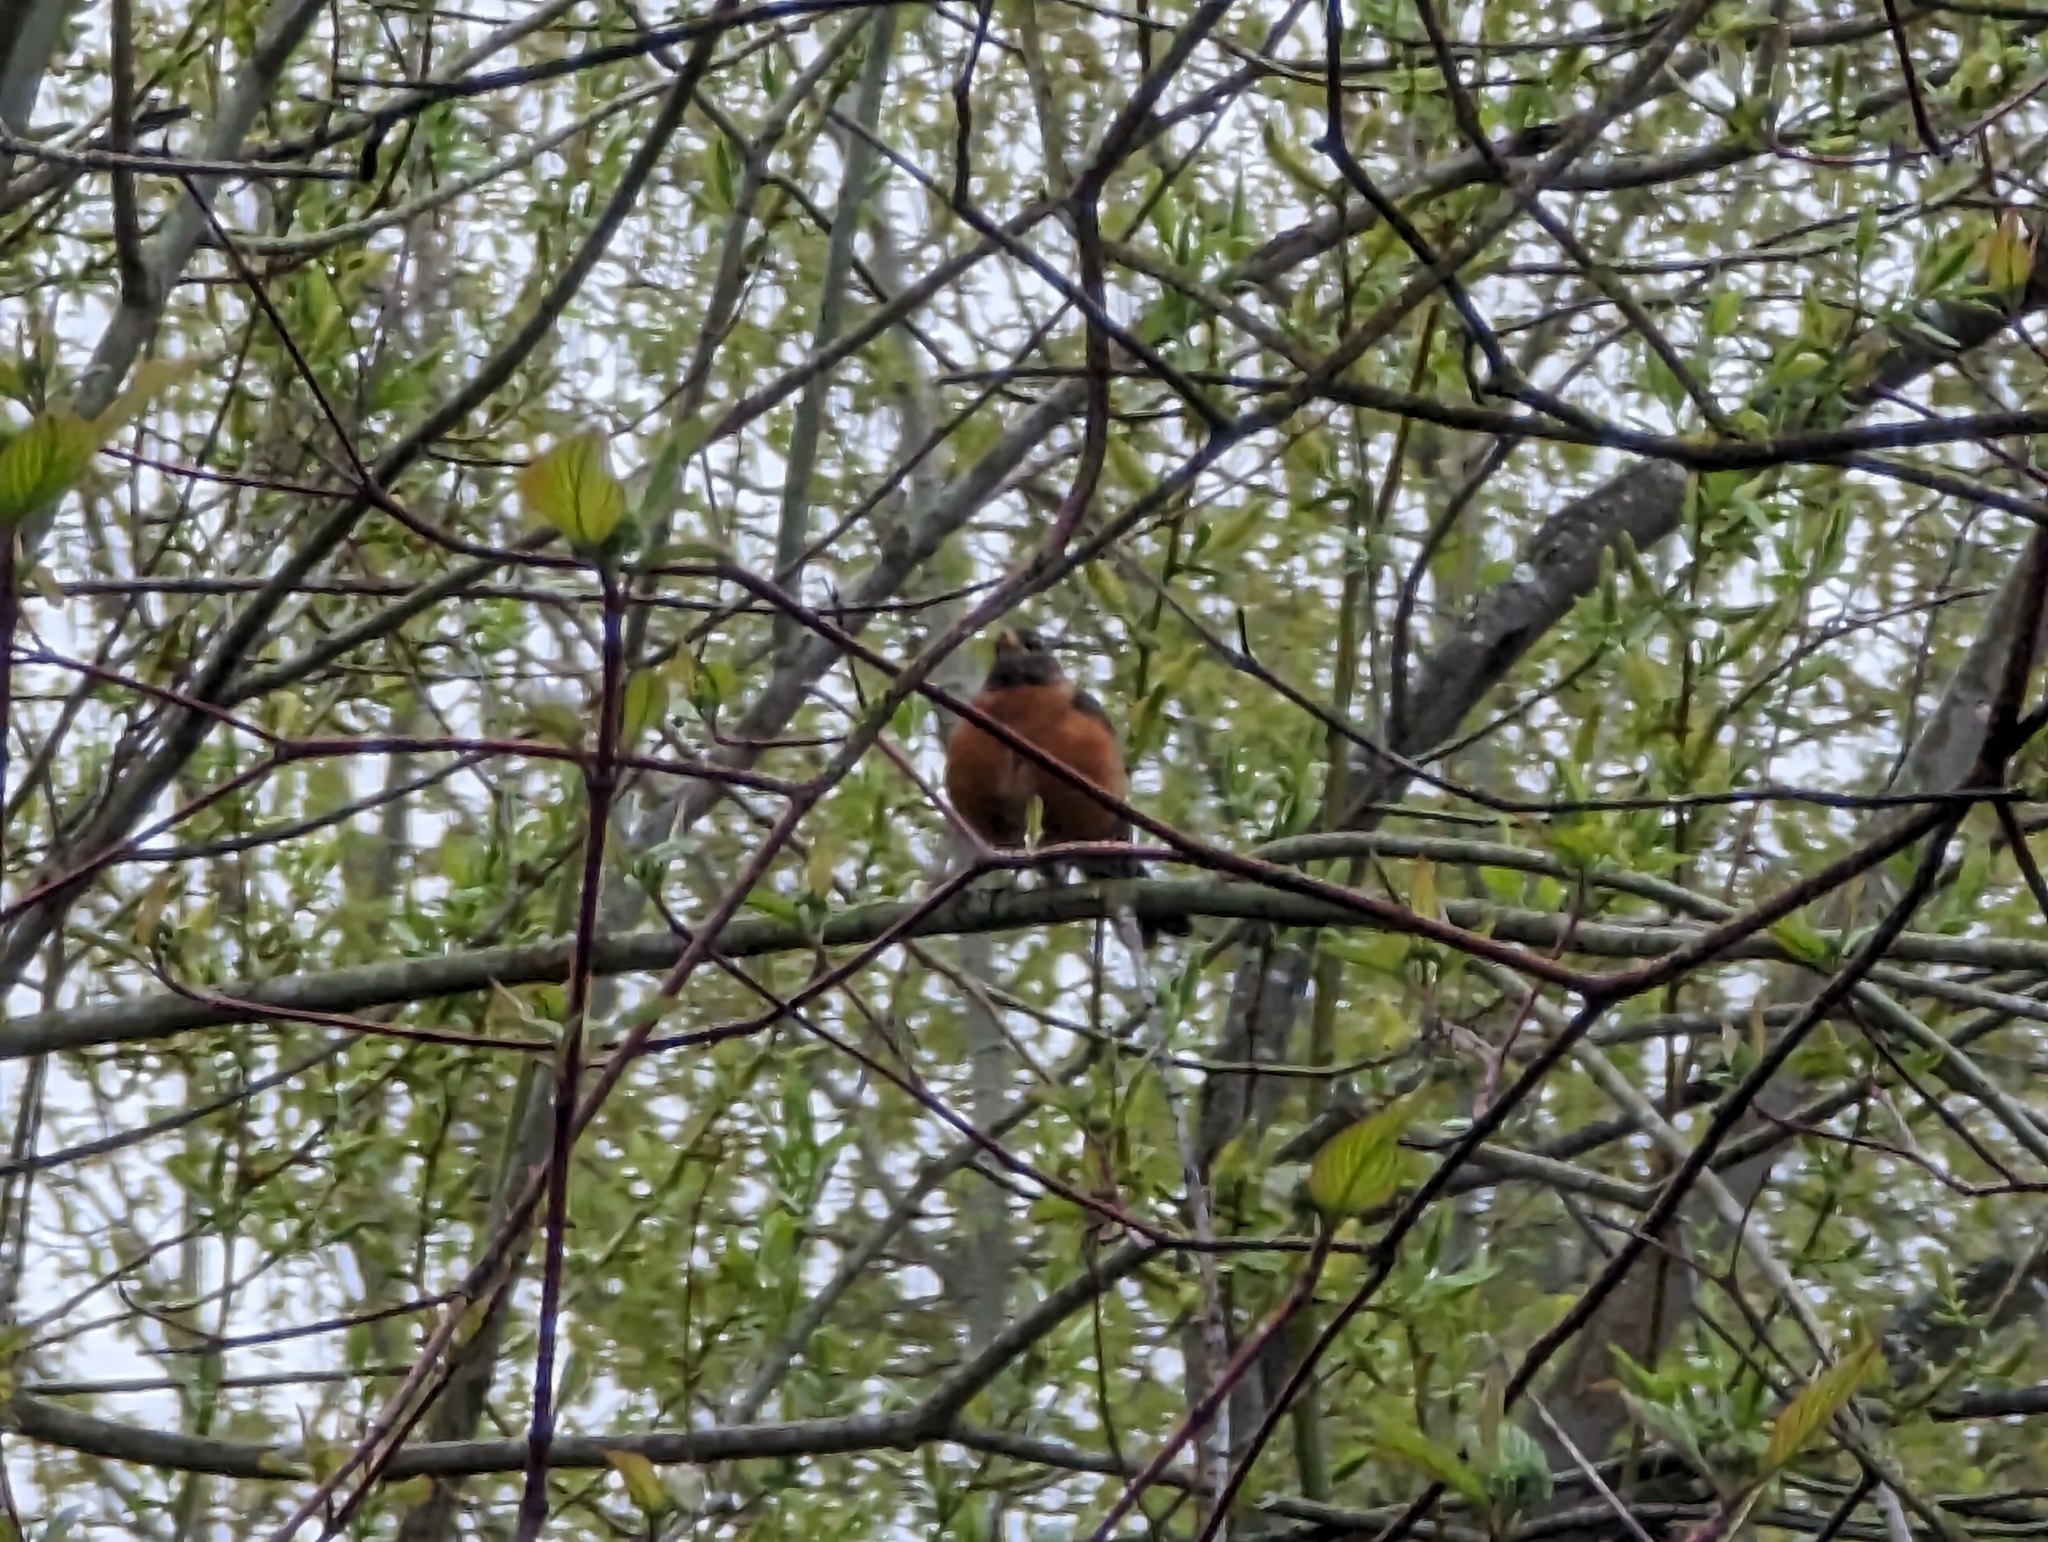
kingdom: Animalia
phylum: Chordata
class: Aves
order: Passeriformes
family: Turdidae
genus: Turdus
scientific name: Turdus migratorius
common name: American robin
